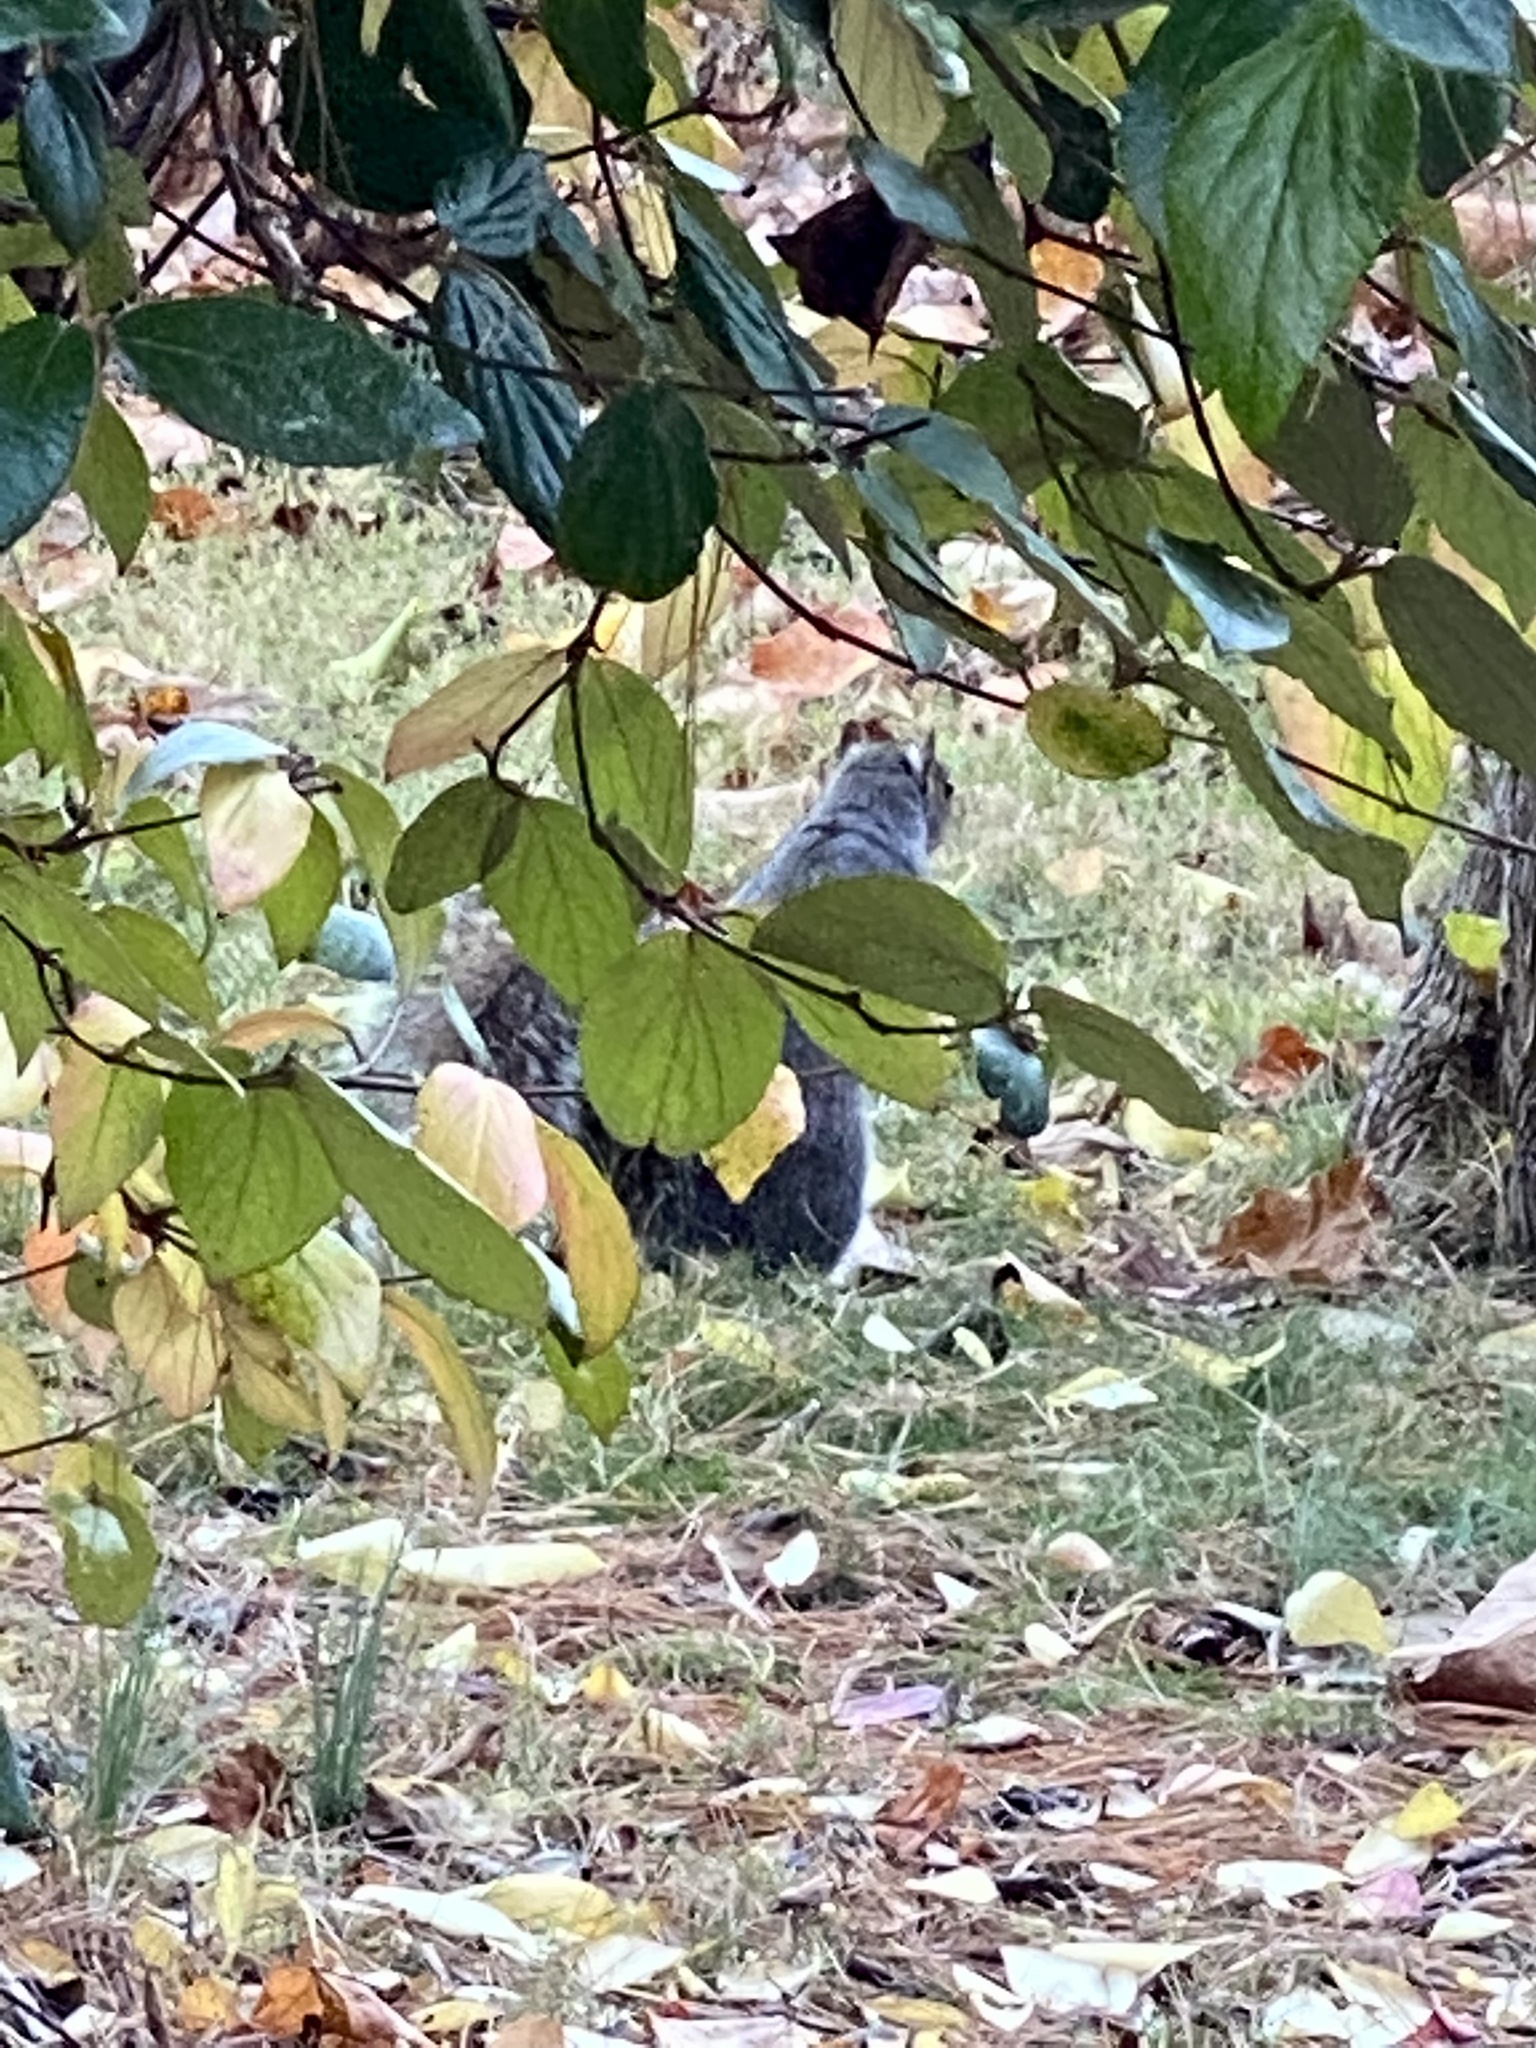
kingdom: Animalia
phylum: Chordata
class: Mammalia
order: Rodentia
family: Sciuridae
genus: Sciurus
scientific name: Sciurus carolinensis
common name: Eastern gray squirrel
